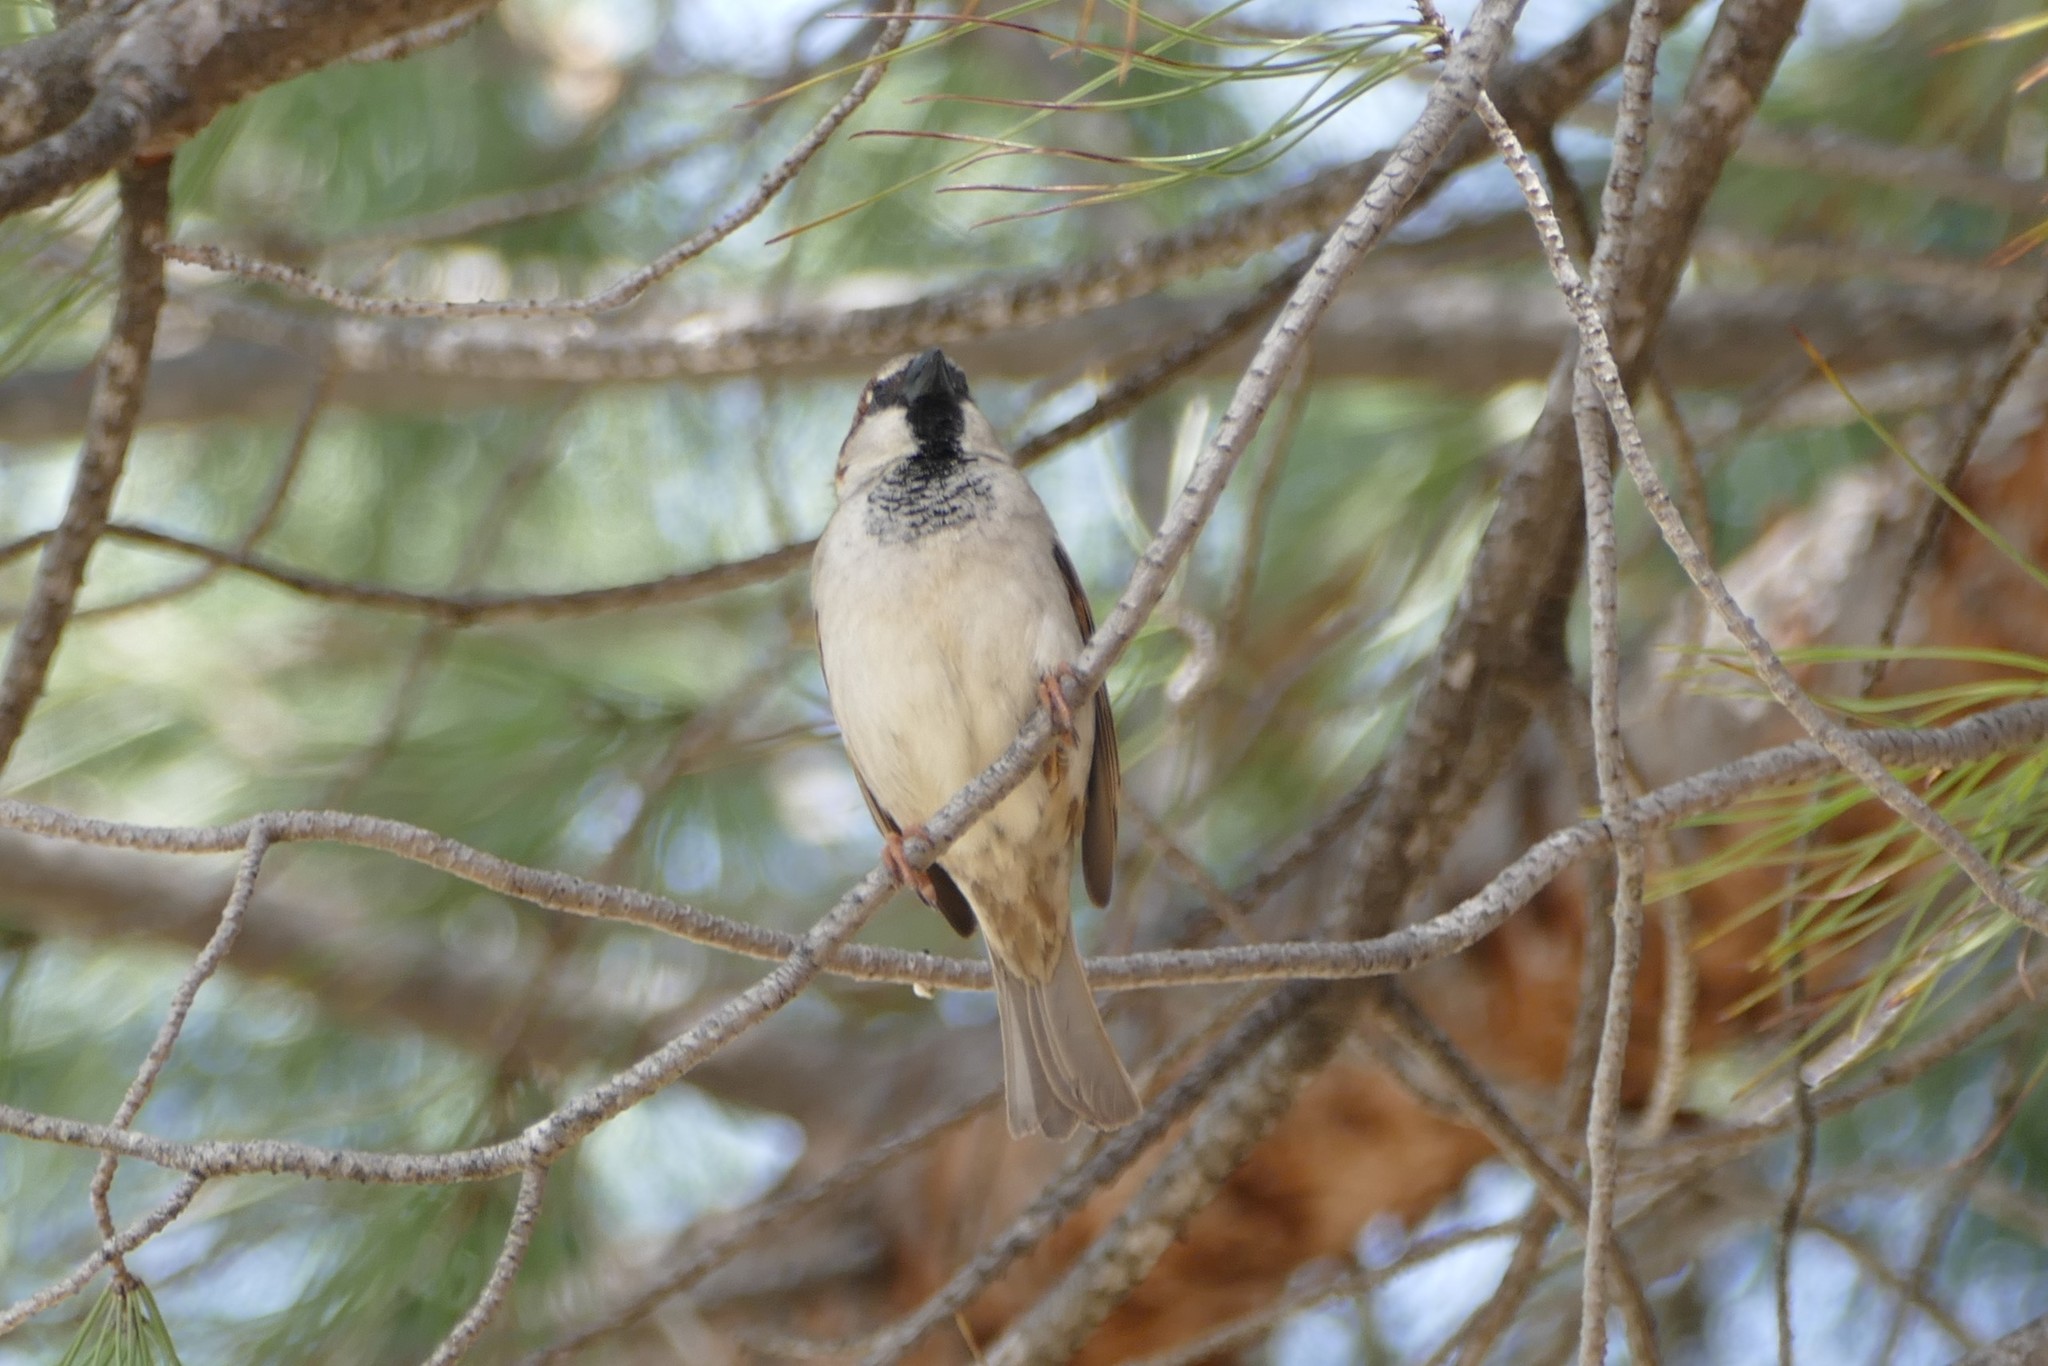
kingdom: Animalia
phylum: Chordata
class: Aves
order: Passeriformes
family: Passeridae
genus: Passer
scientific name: Passer domesticus
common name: House sparrow
